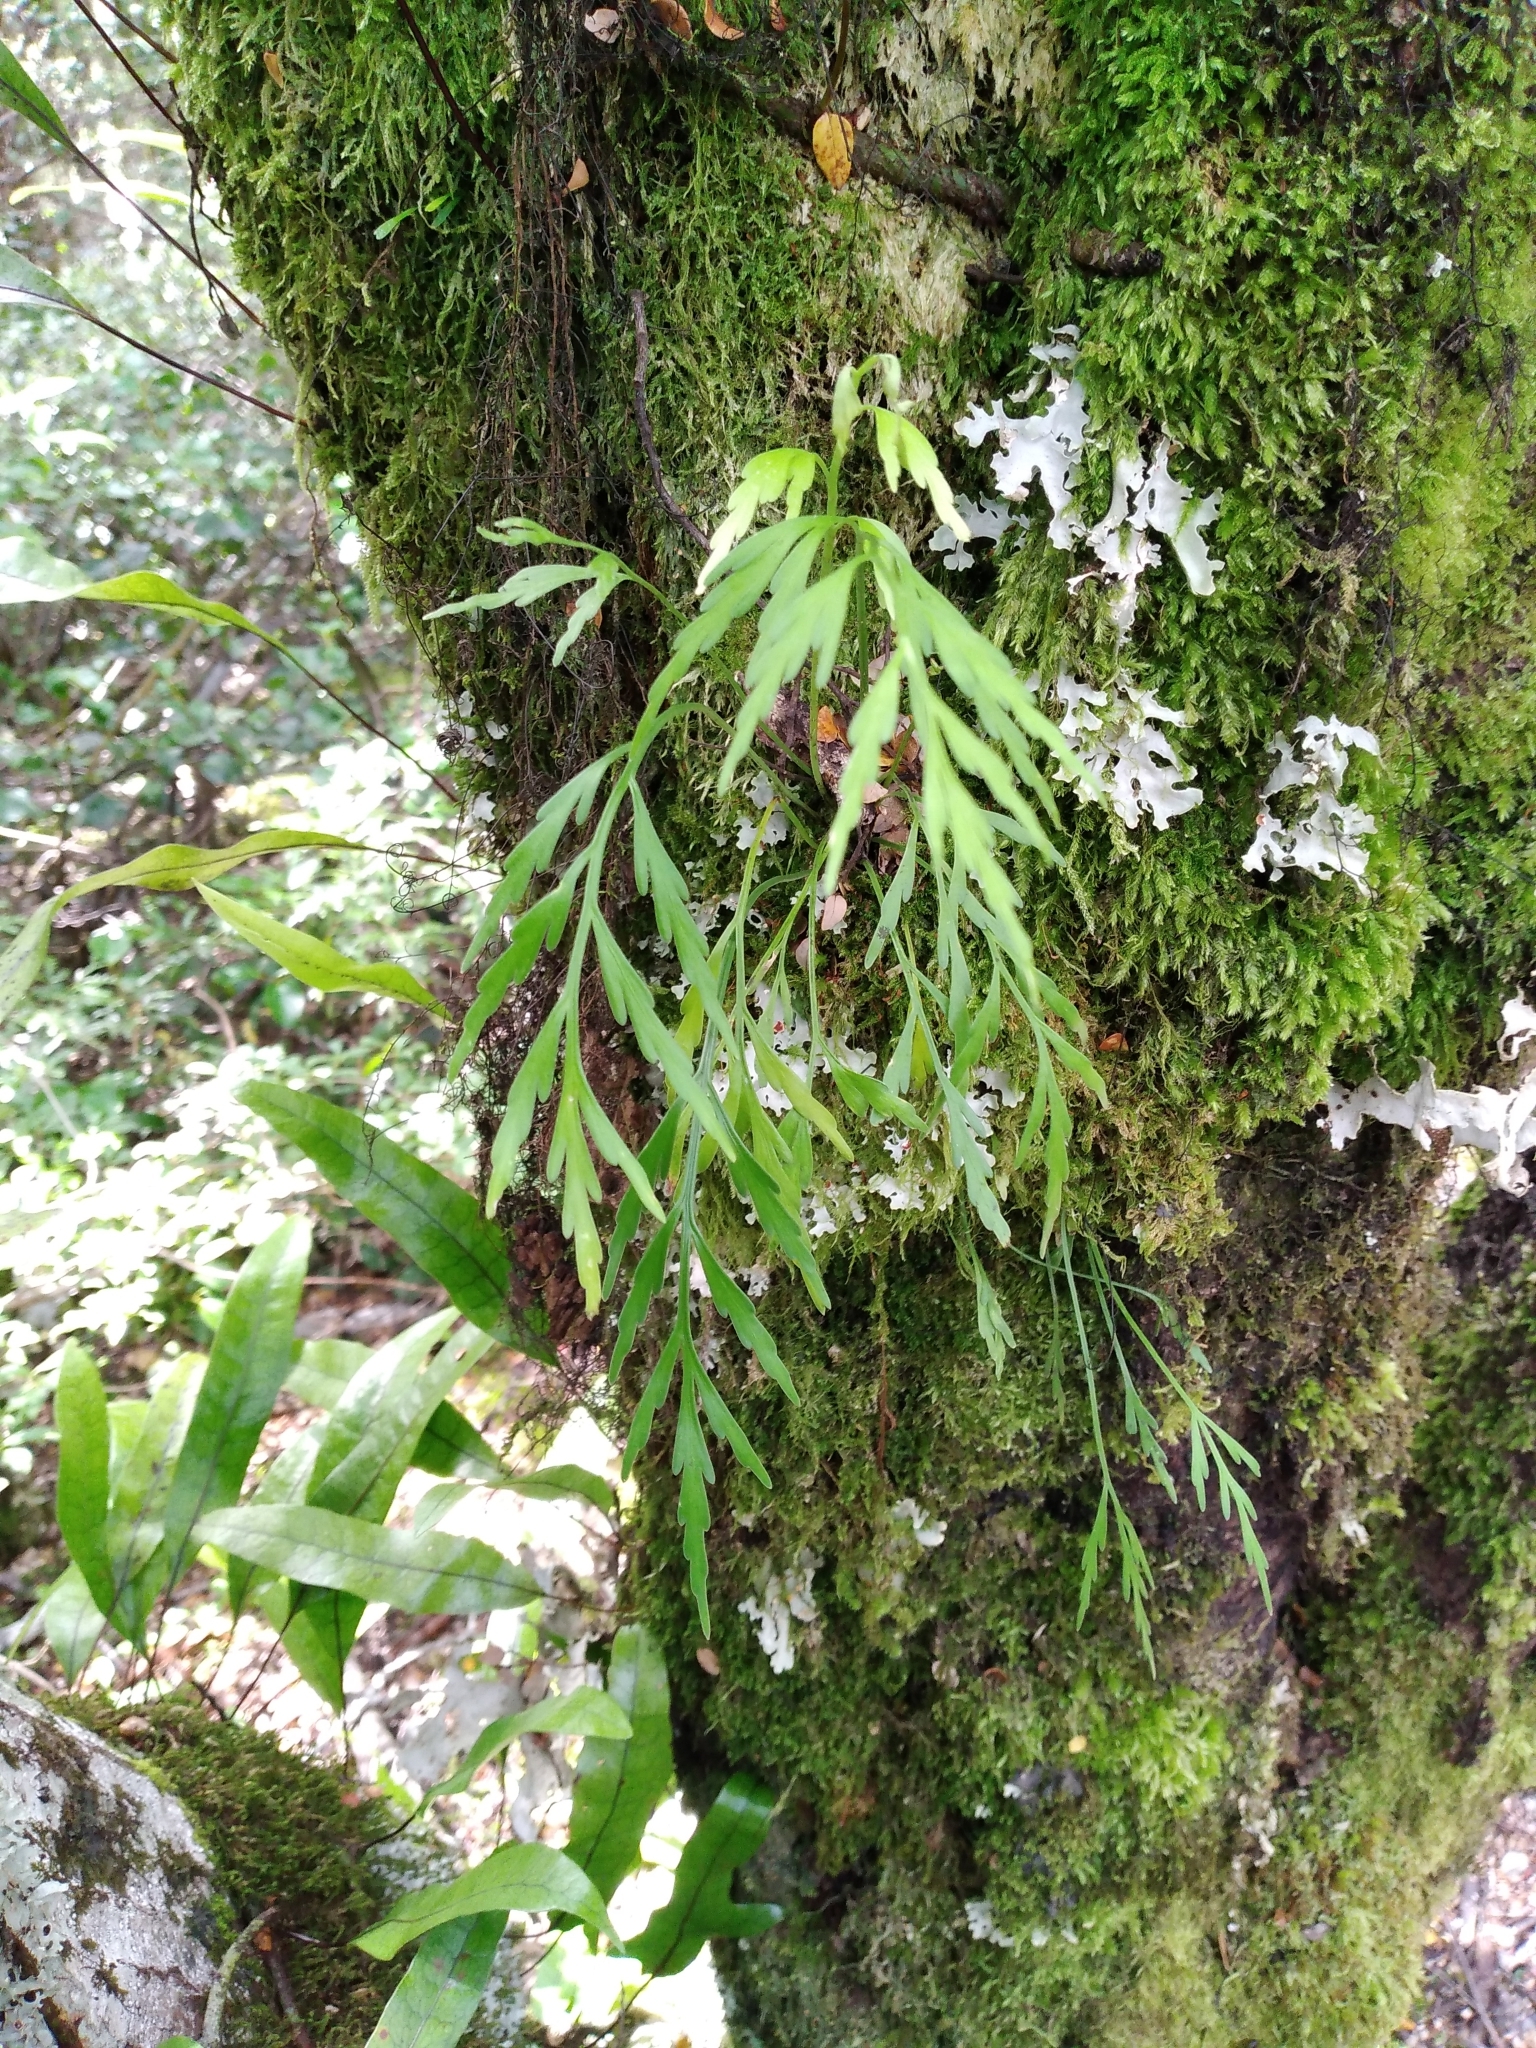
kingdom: Plantae
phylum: Tracheophyta
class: Polypodiopsida
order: Polypodiales
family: Aspleniaceae
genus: Asplenium
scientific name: Asplenium flaccidum
